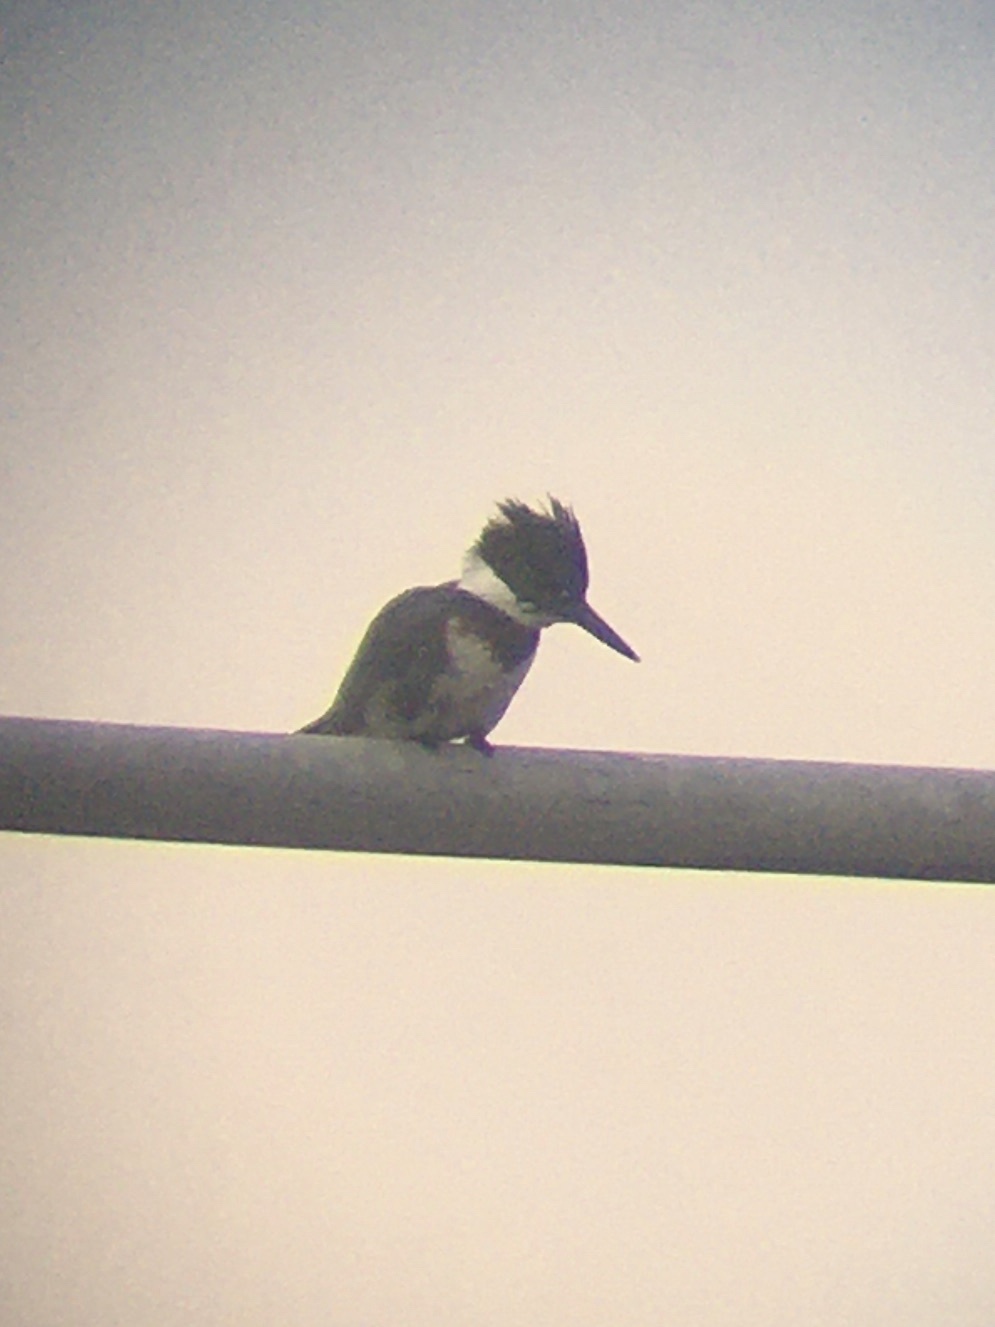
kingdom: Animalia
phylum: Chordata
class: Aves
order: Coraciiformes
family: Alcedinidae
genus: Megaceryle
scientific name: Megaceryle alcyon
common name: Belted kingfisher
